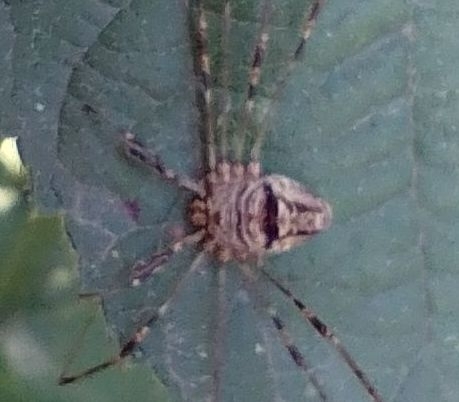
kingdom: Animalia
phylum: Arthropoda
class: Arachnida
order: Opiliones
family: Phalangiidae
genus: Dicranopalpus
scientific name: Dicranopalpus
